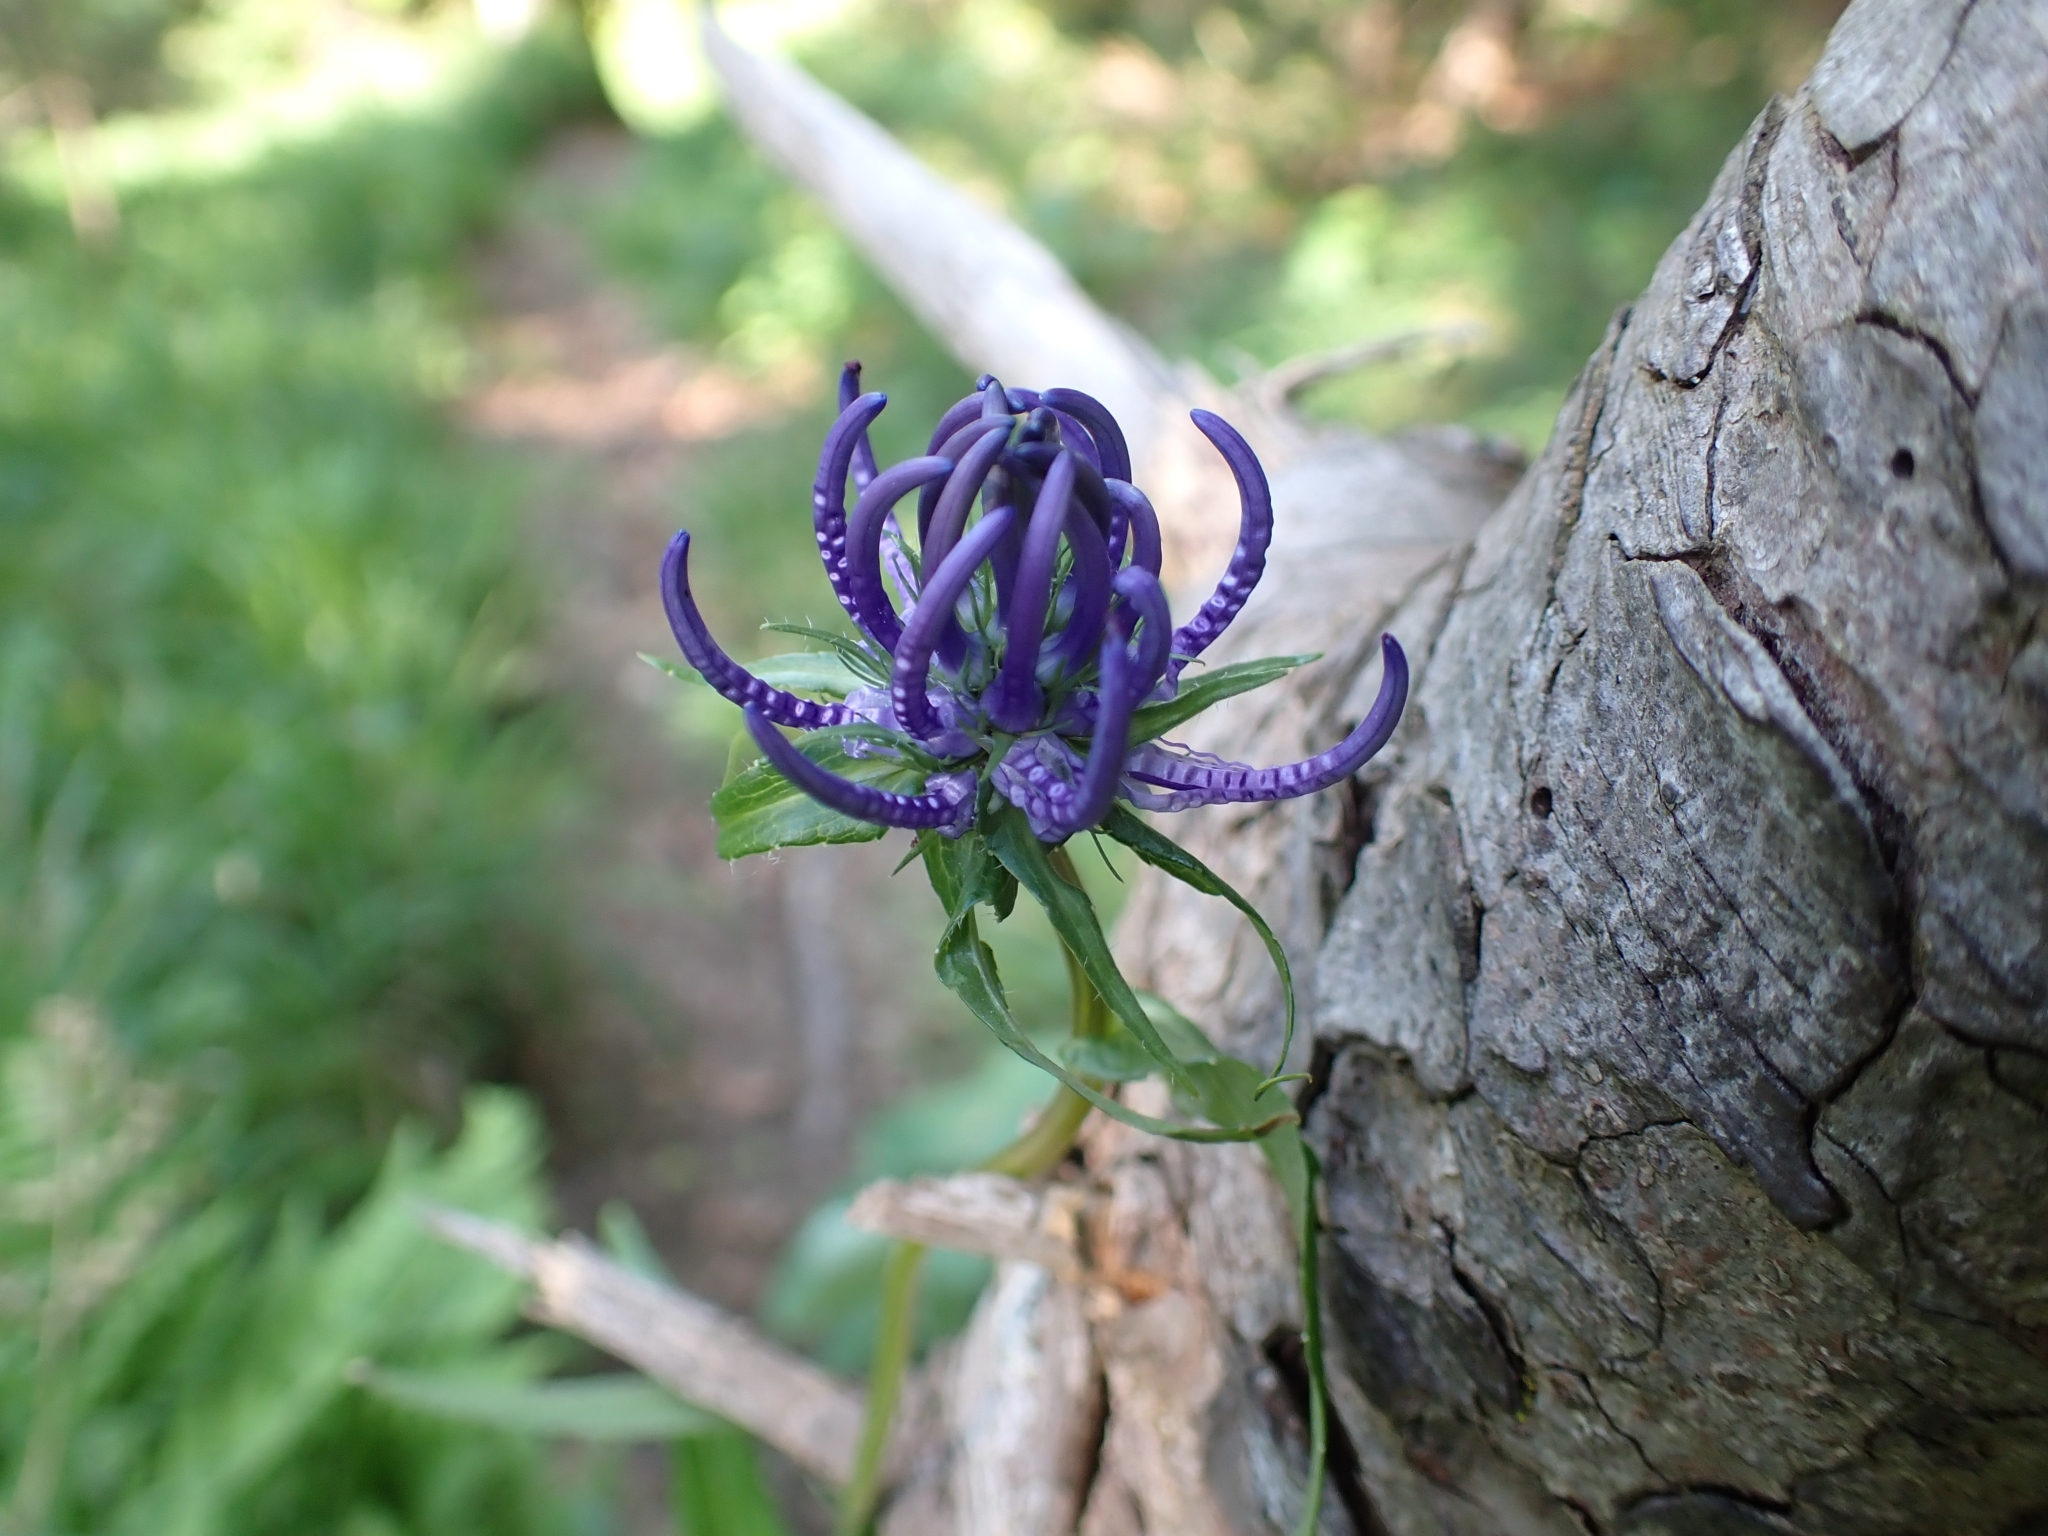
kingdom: Plantae
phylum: Tracheophyta
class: Magnoliopsida
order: Asterales
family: Campanulaceae
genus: Phyteuma
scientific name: Phyteuma orbiculare
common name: Round-headed rampion
